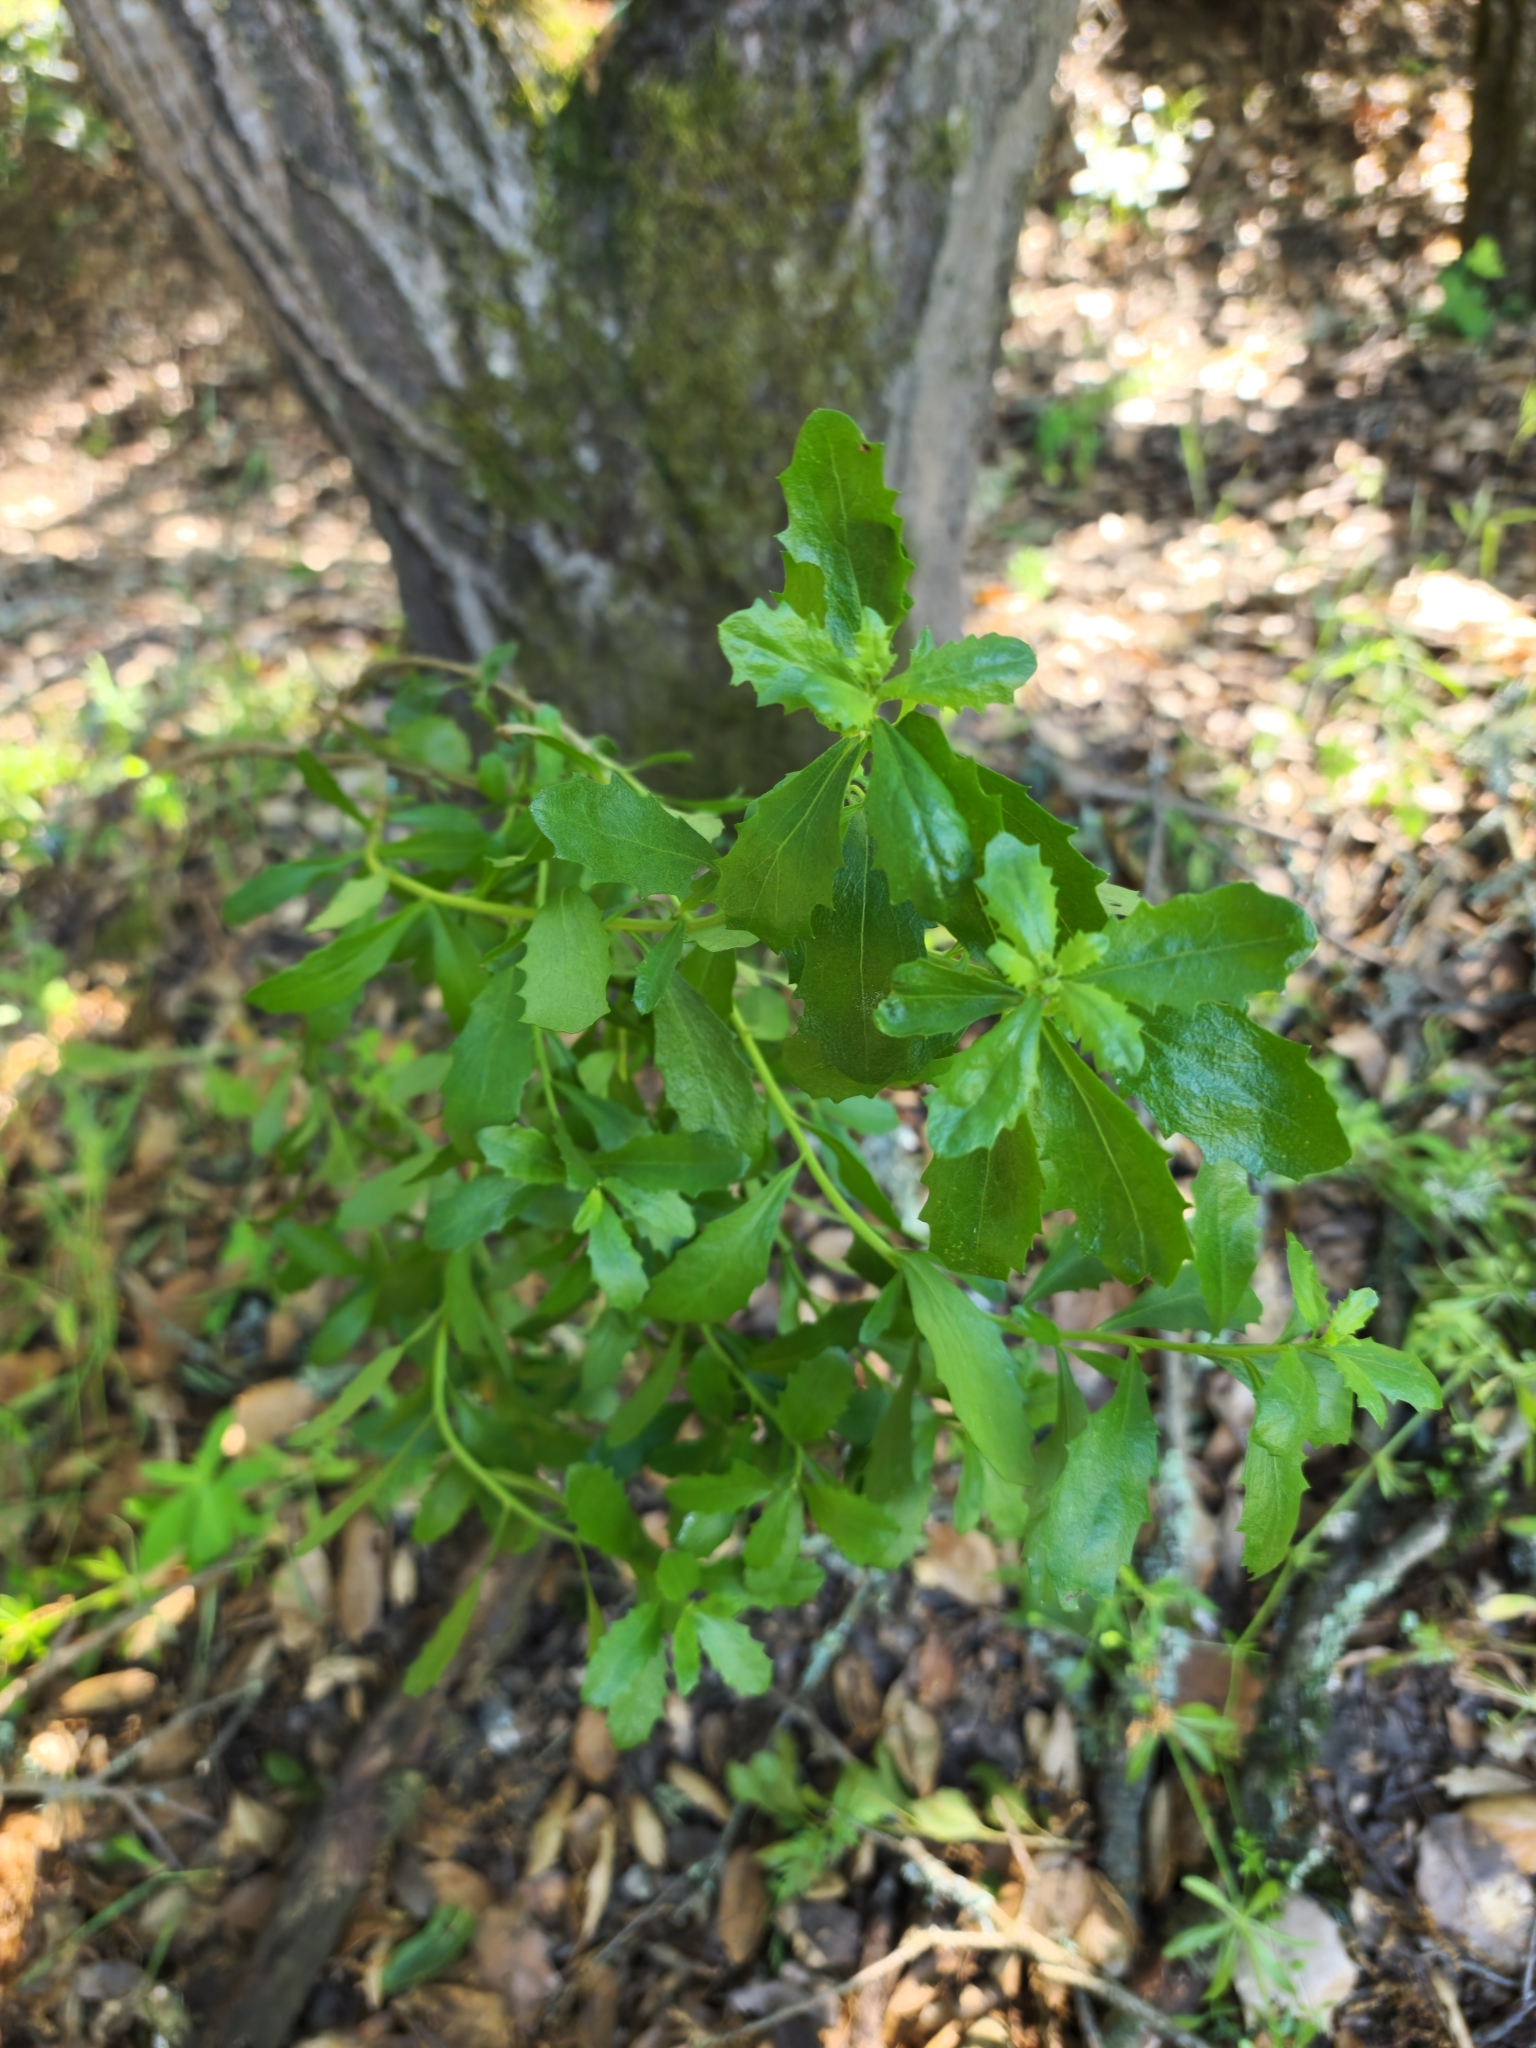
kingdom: Plantae
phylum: Tracheophyta
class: Magnoliopsida
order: Asterales
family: Asteraceae
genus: Baccharis
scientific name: Baccharis pilularis
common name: Coyotebrush
